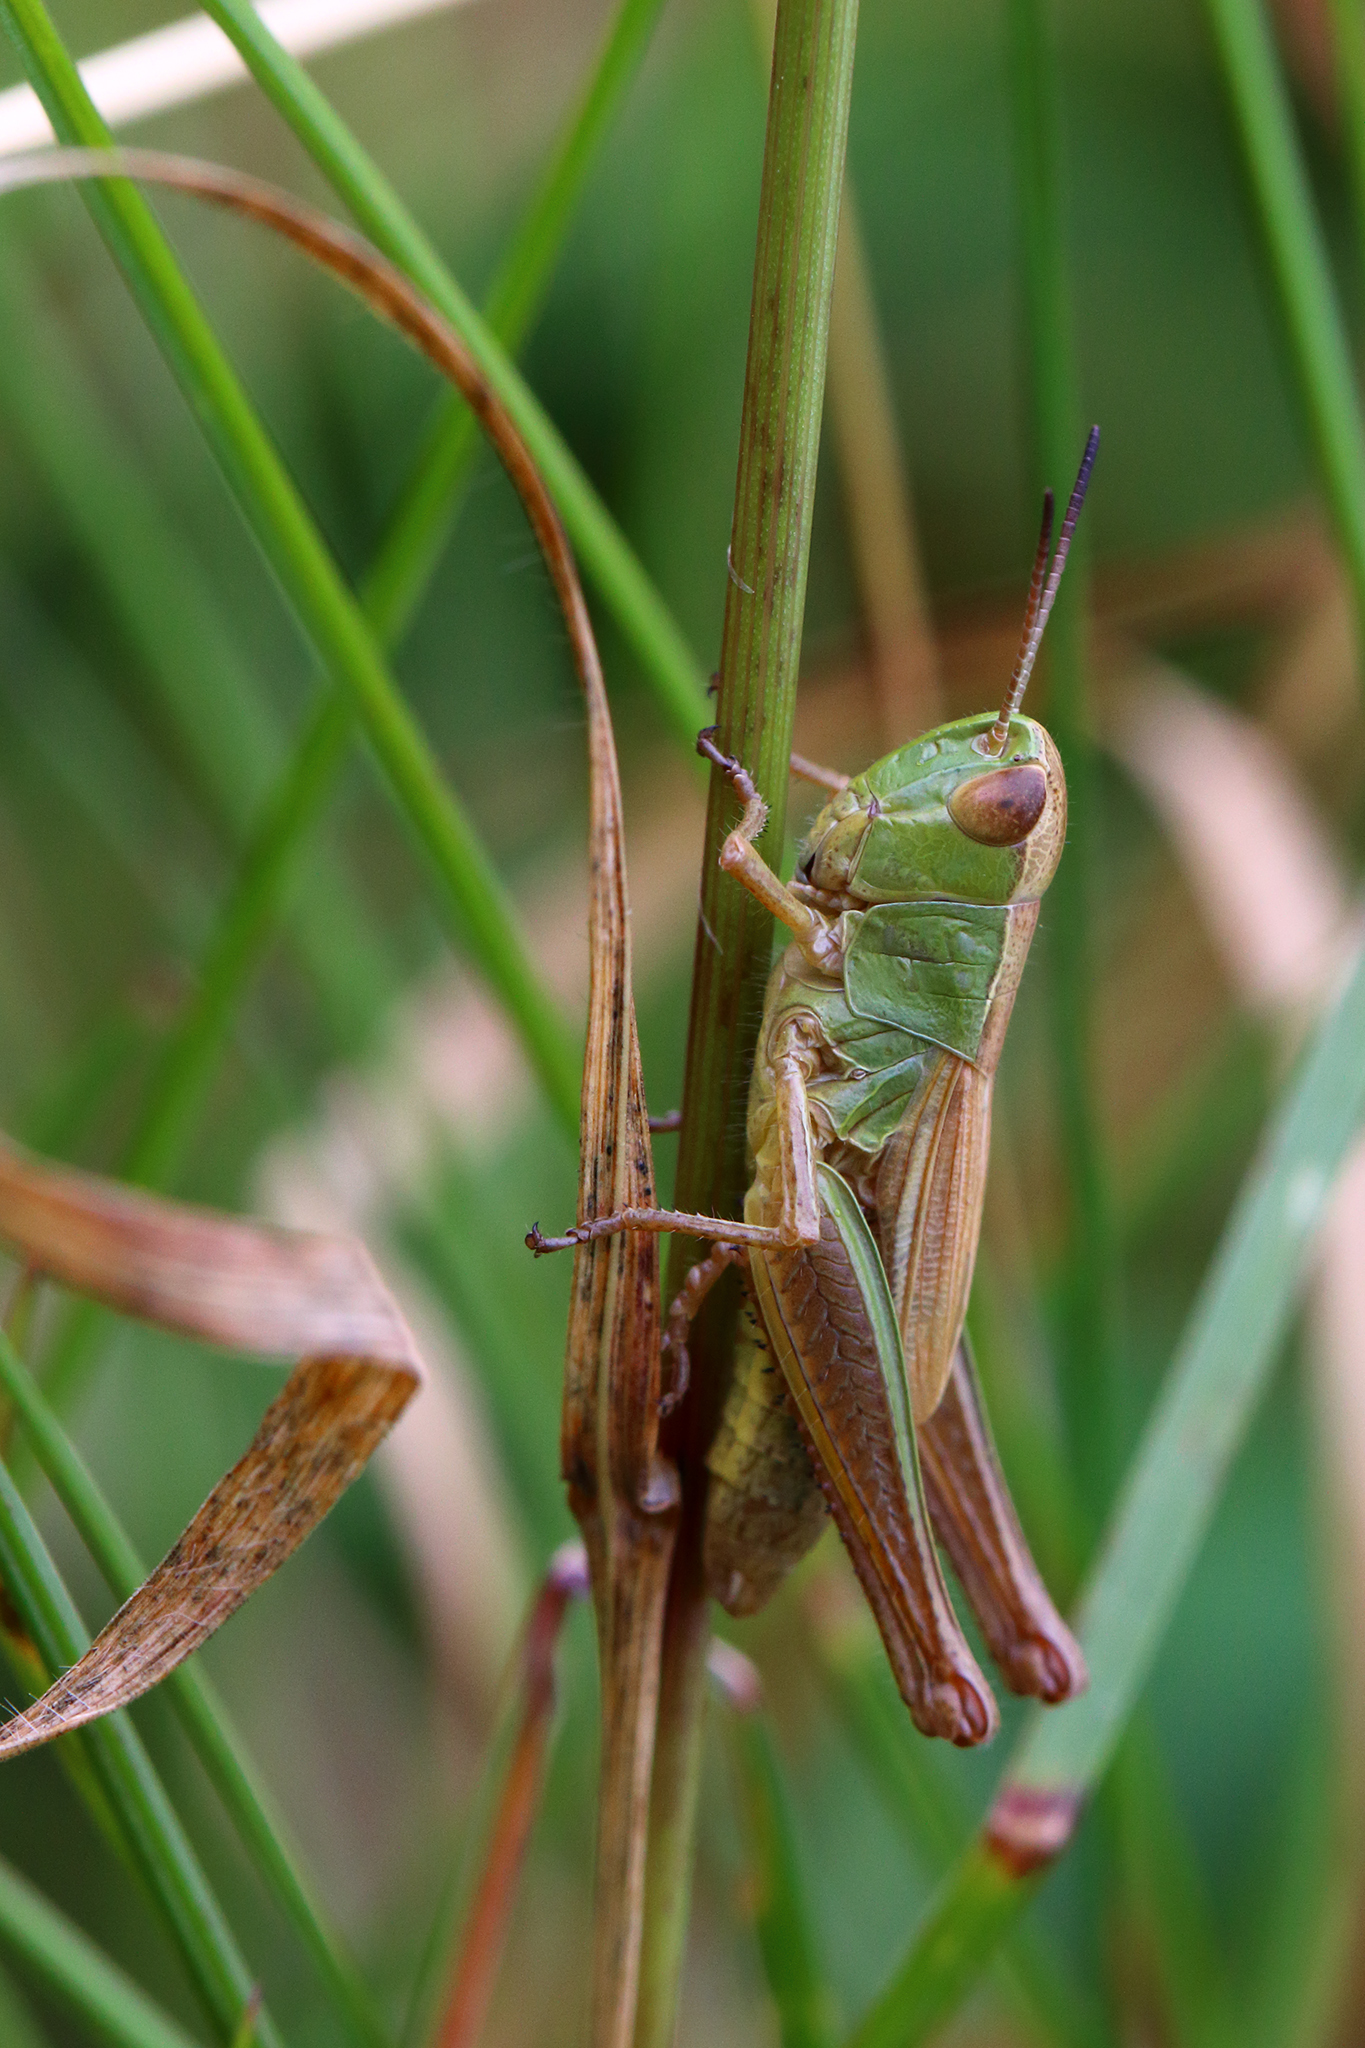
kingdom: Animalia
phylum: Arthropoda
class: Insecta
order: Orthoptera
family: Acrididae
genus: Pseudochorthippus
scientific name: Pseudochorthippus parallelus
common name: Meadow grasshopper
